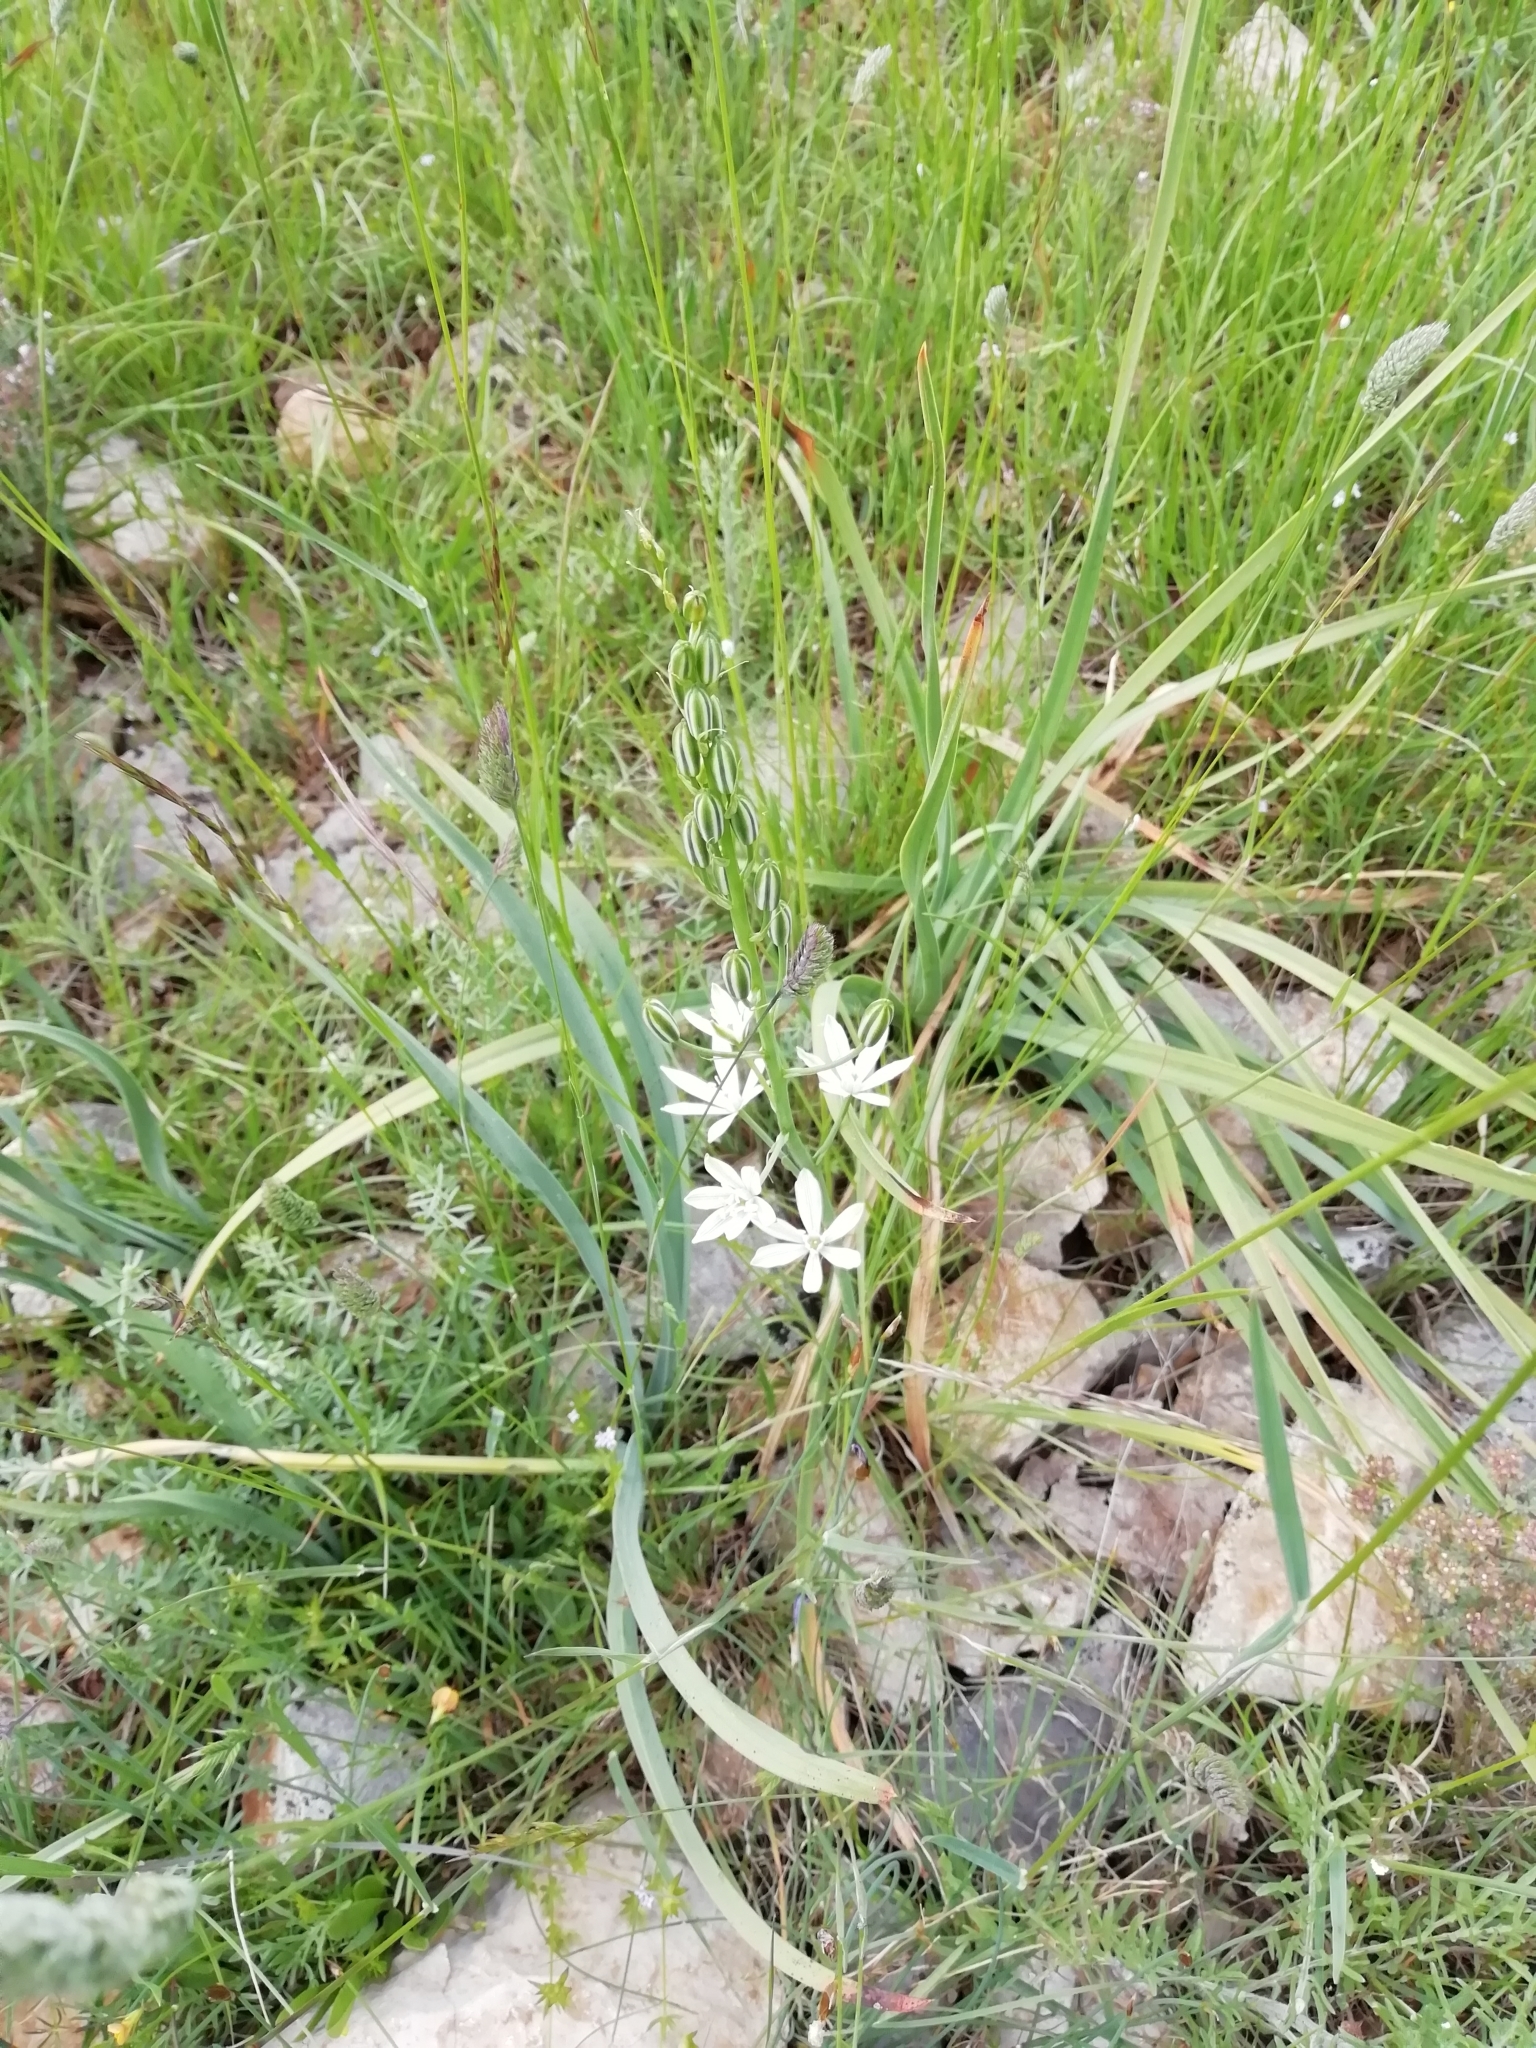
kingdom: Plantae
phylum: Tracheophyta
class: Liliopsida
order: Asparagales
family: Asparagaceae
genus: Ornithogalum
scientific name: Ornithogalum narbonense
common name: Bath-asparagus
